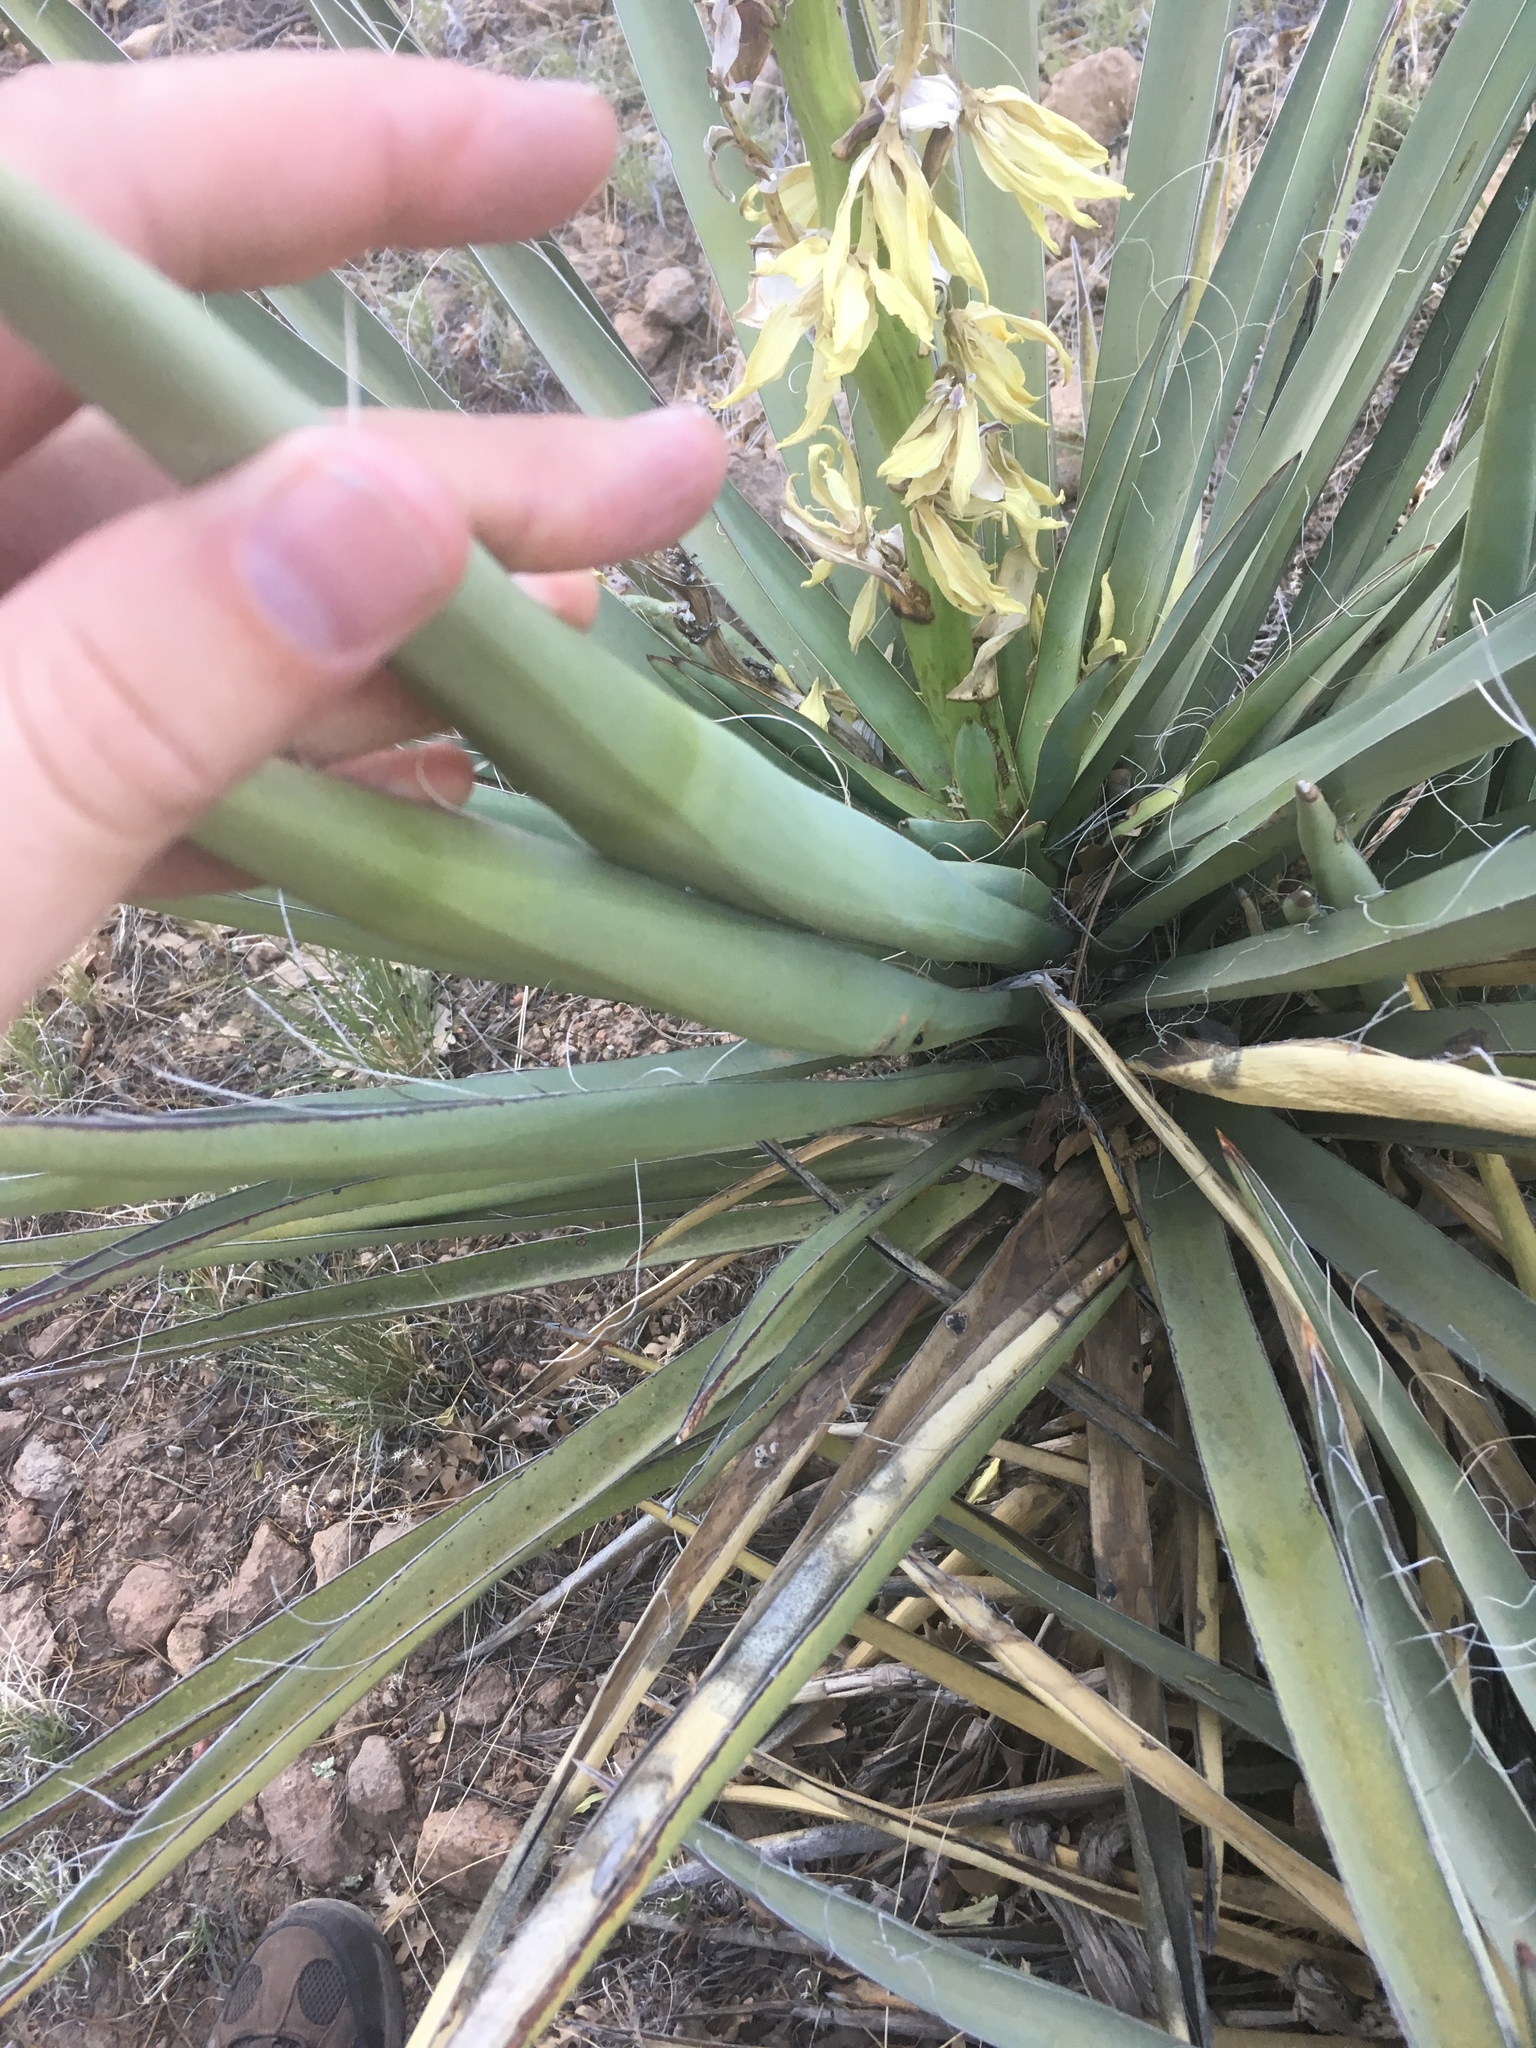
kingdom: Plantae
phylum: Tracheophyta
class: Liliopsida
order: Asparagales
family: Asparagaceae
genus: Yucca
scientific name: Yucca baccata
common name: Banana yucca
